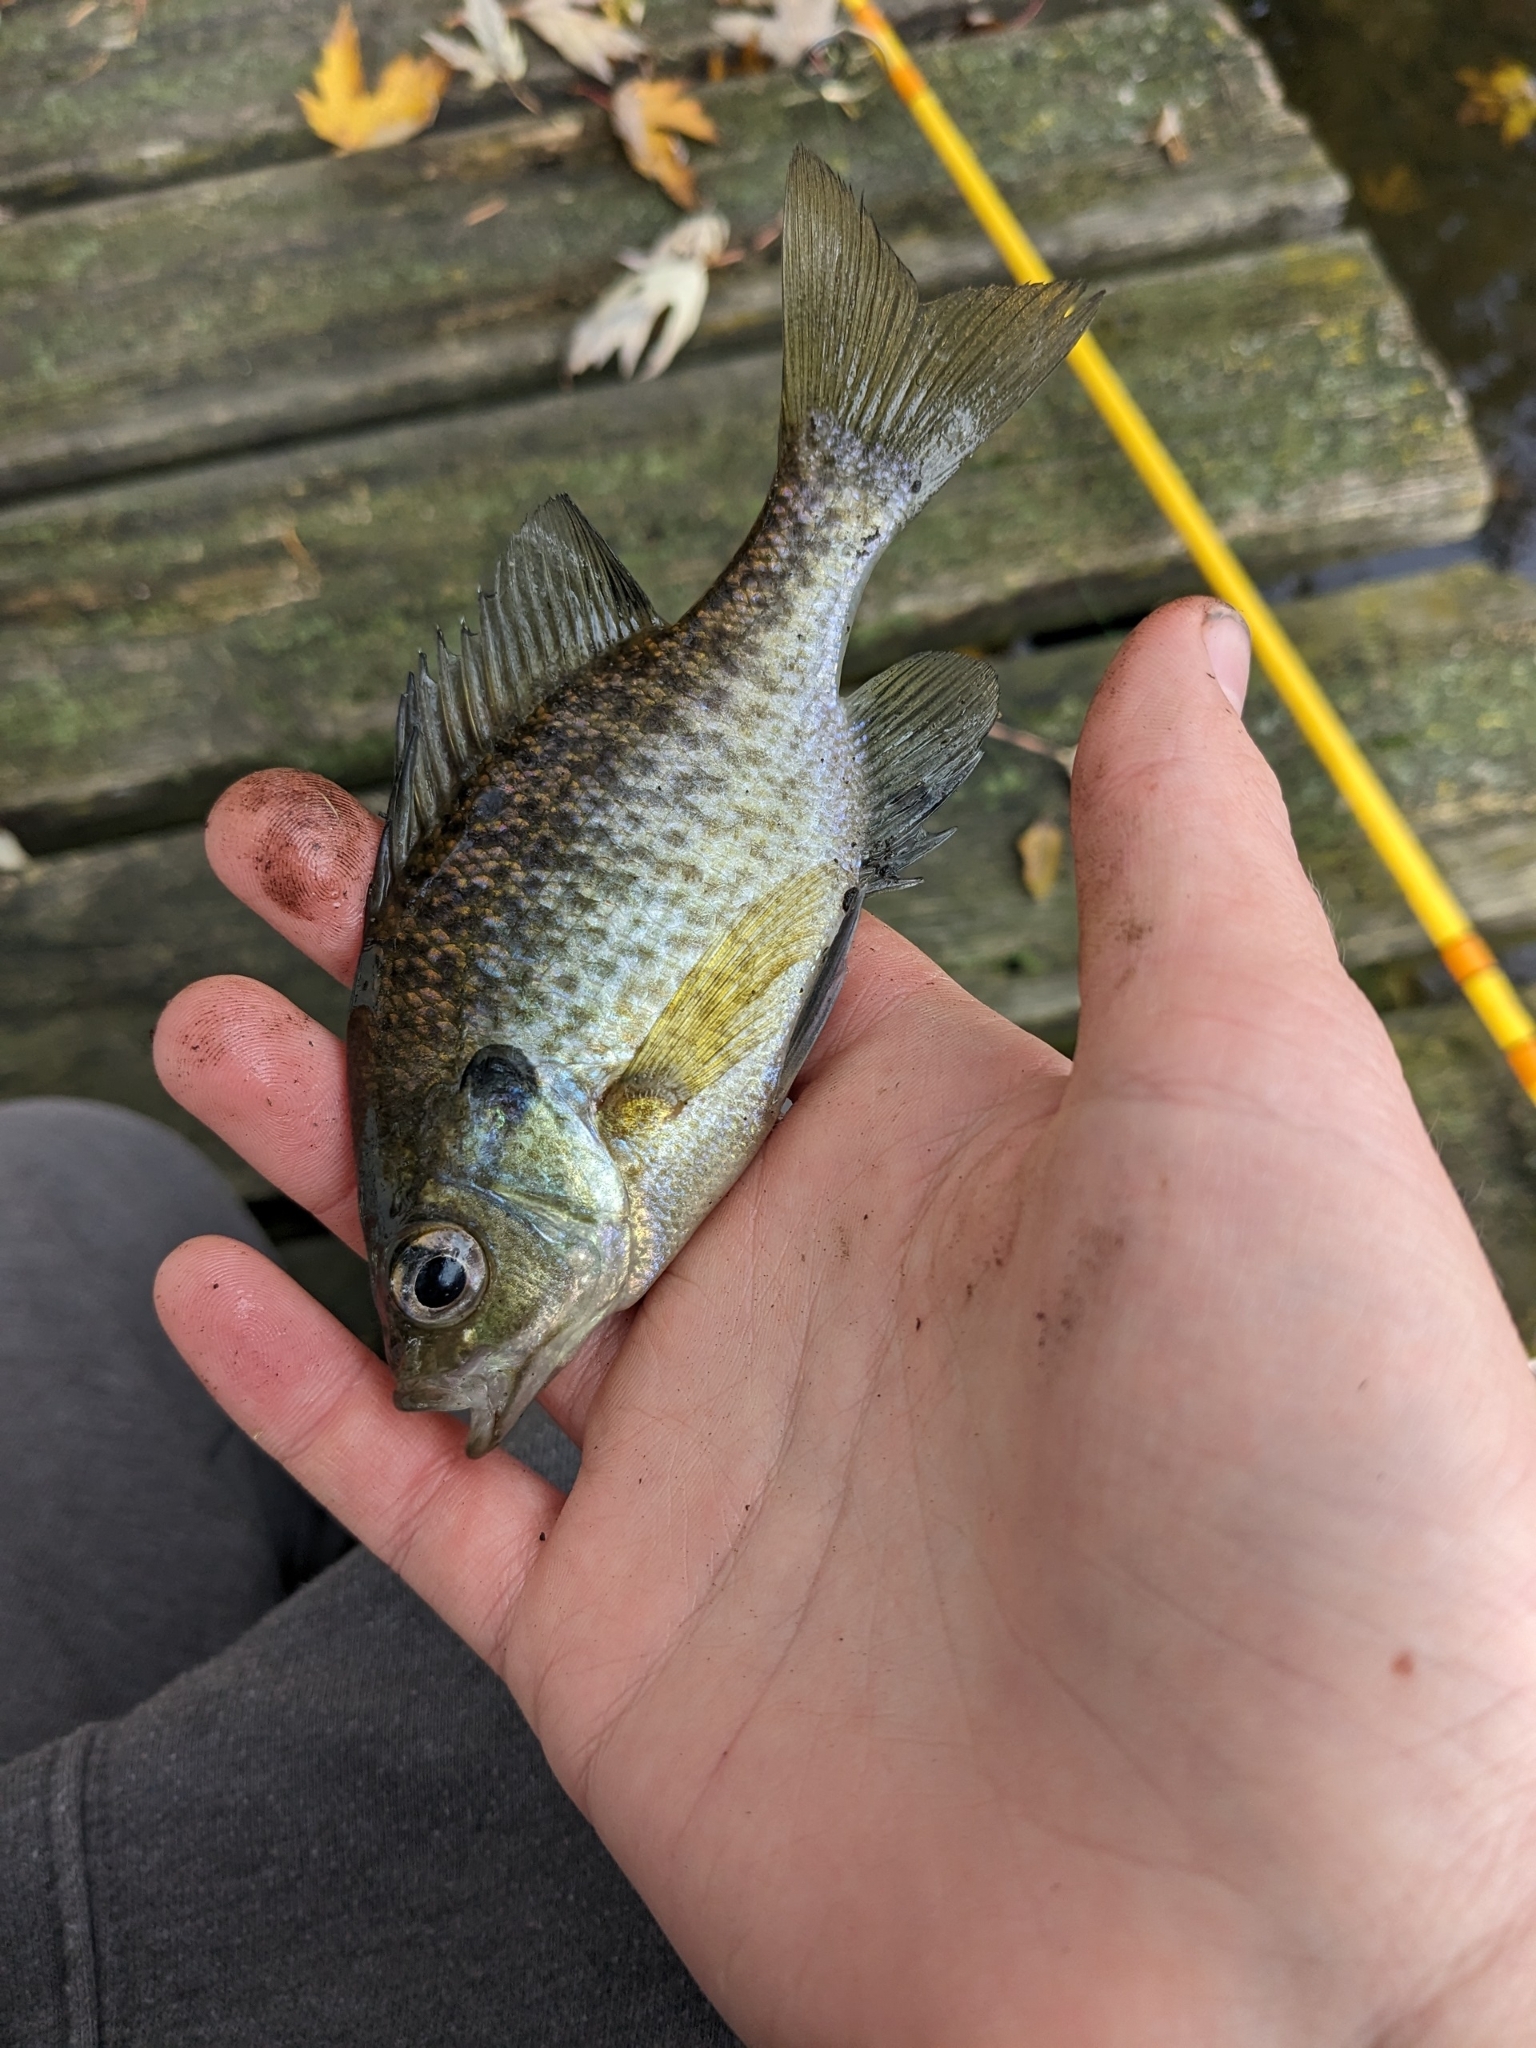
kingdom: Animalia
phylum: Chordata
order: Perciformes
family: Centrarchidae
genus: Lepomis
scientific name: Lepomis macrochirus
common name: Bluegill
